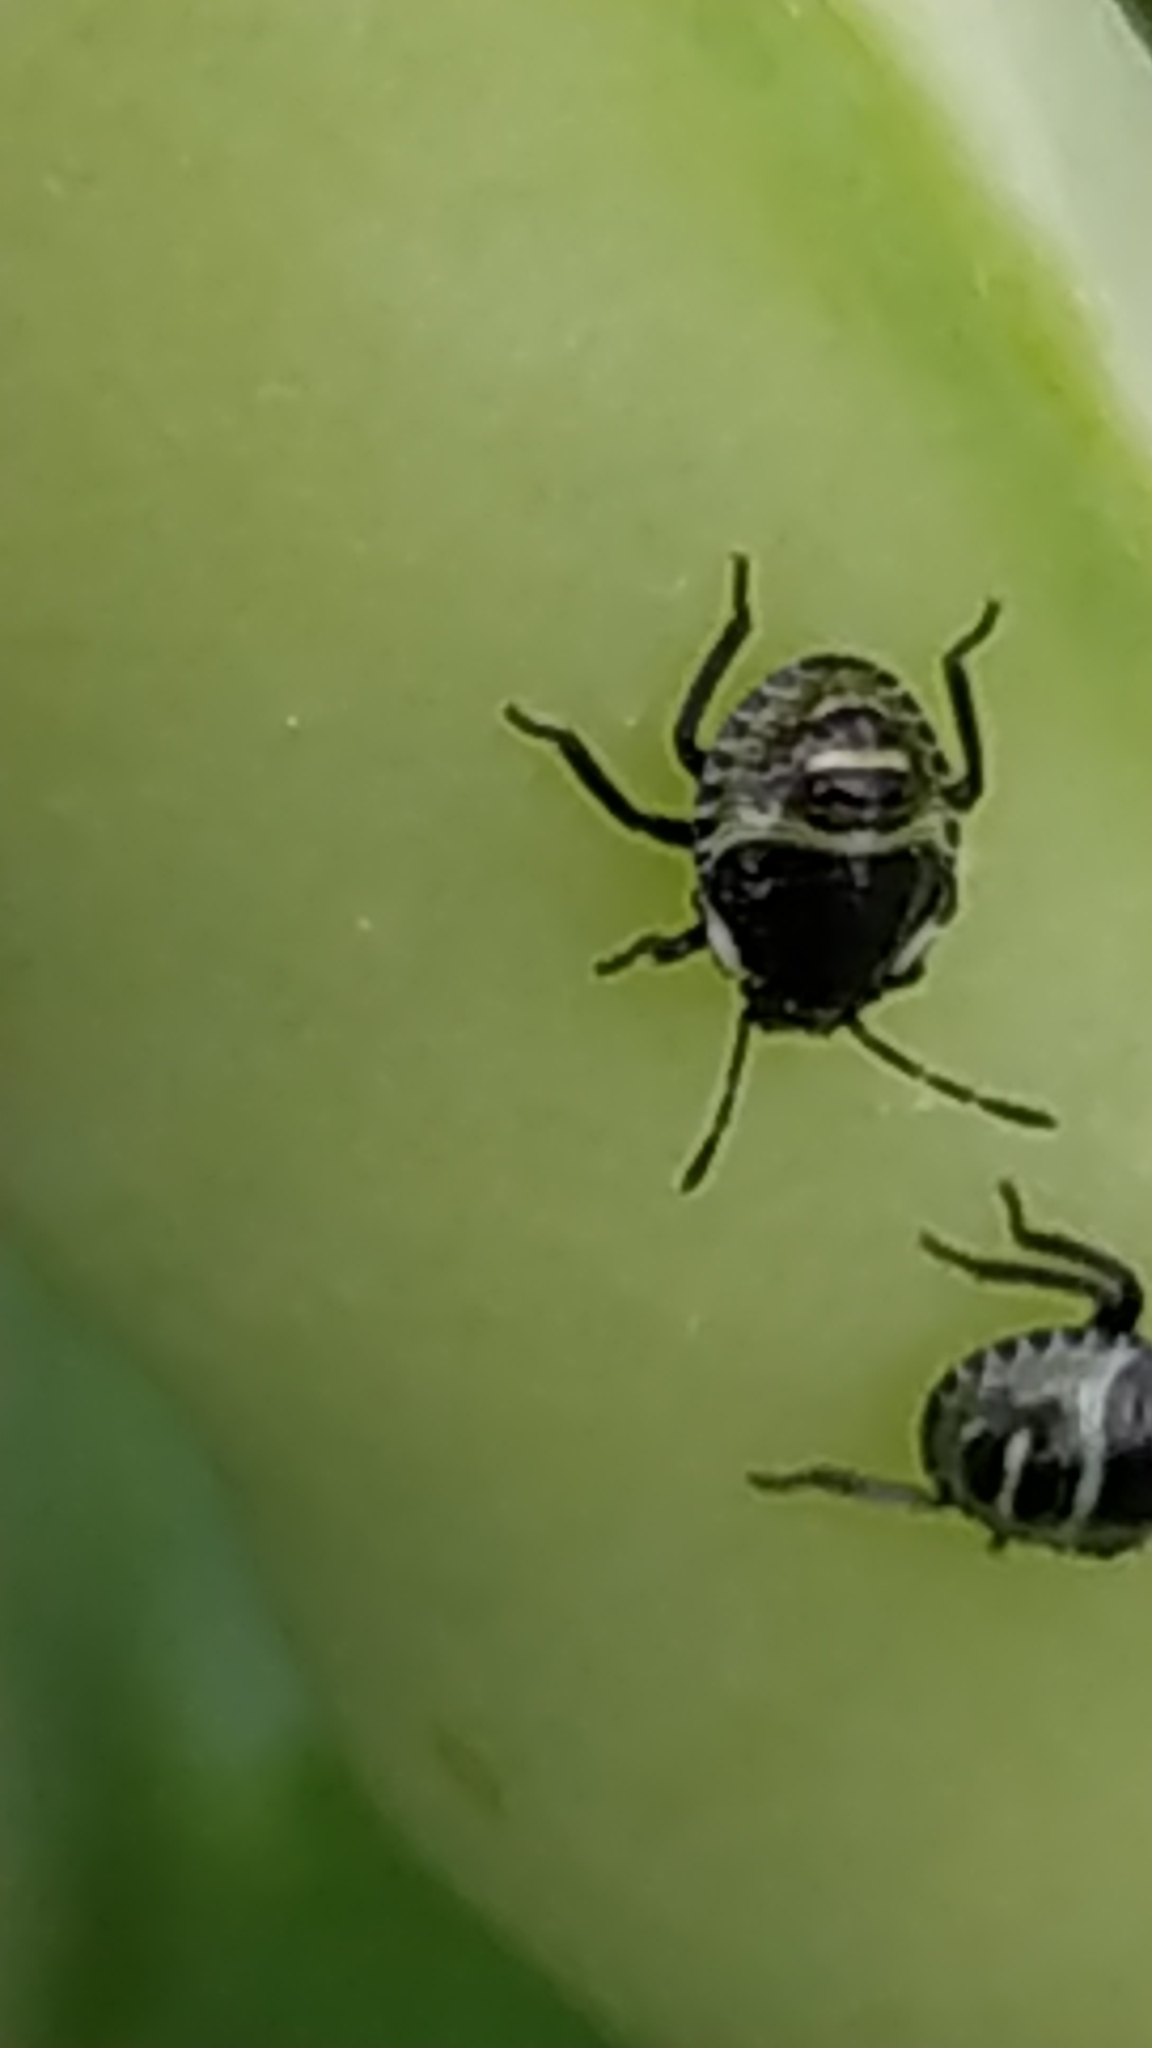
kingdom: Animalia
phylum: Arthropoda
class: Insecta
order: Hemiptera
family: Pentatomidae
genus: Palomena
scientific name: Palomena prasina
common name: Green shieldbug
